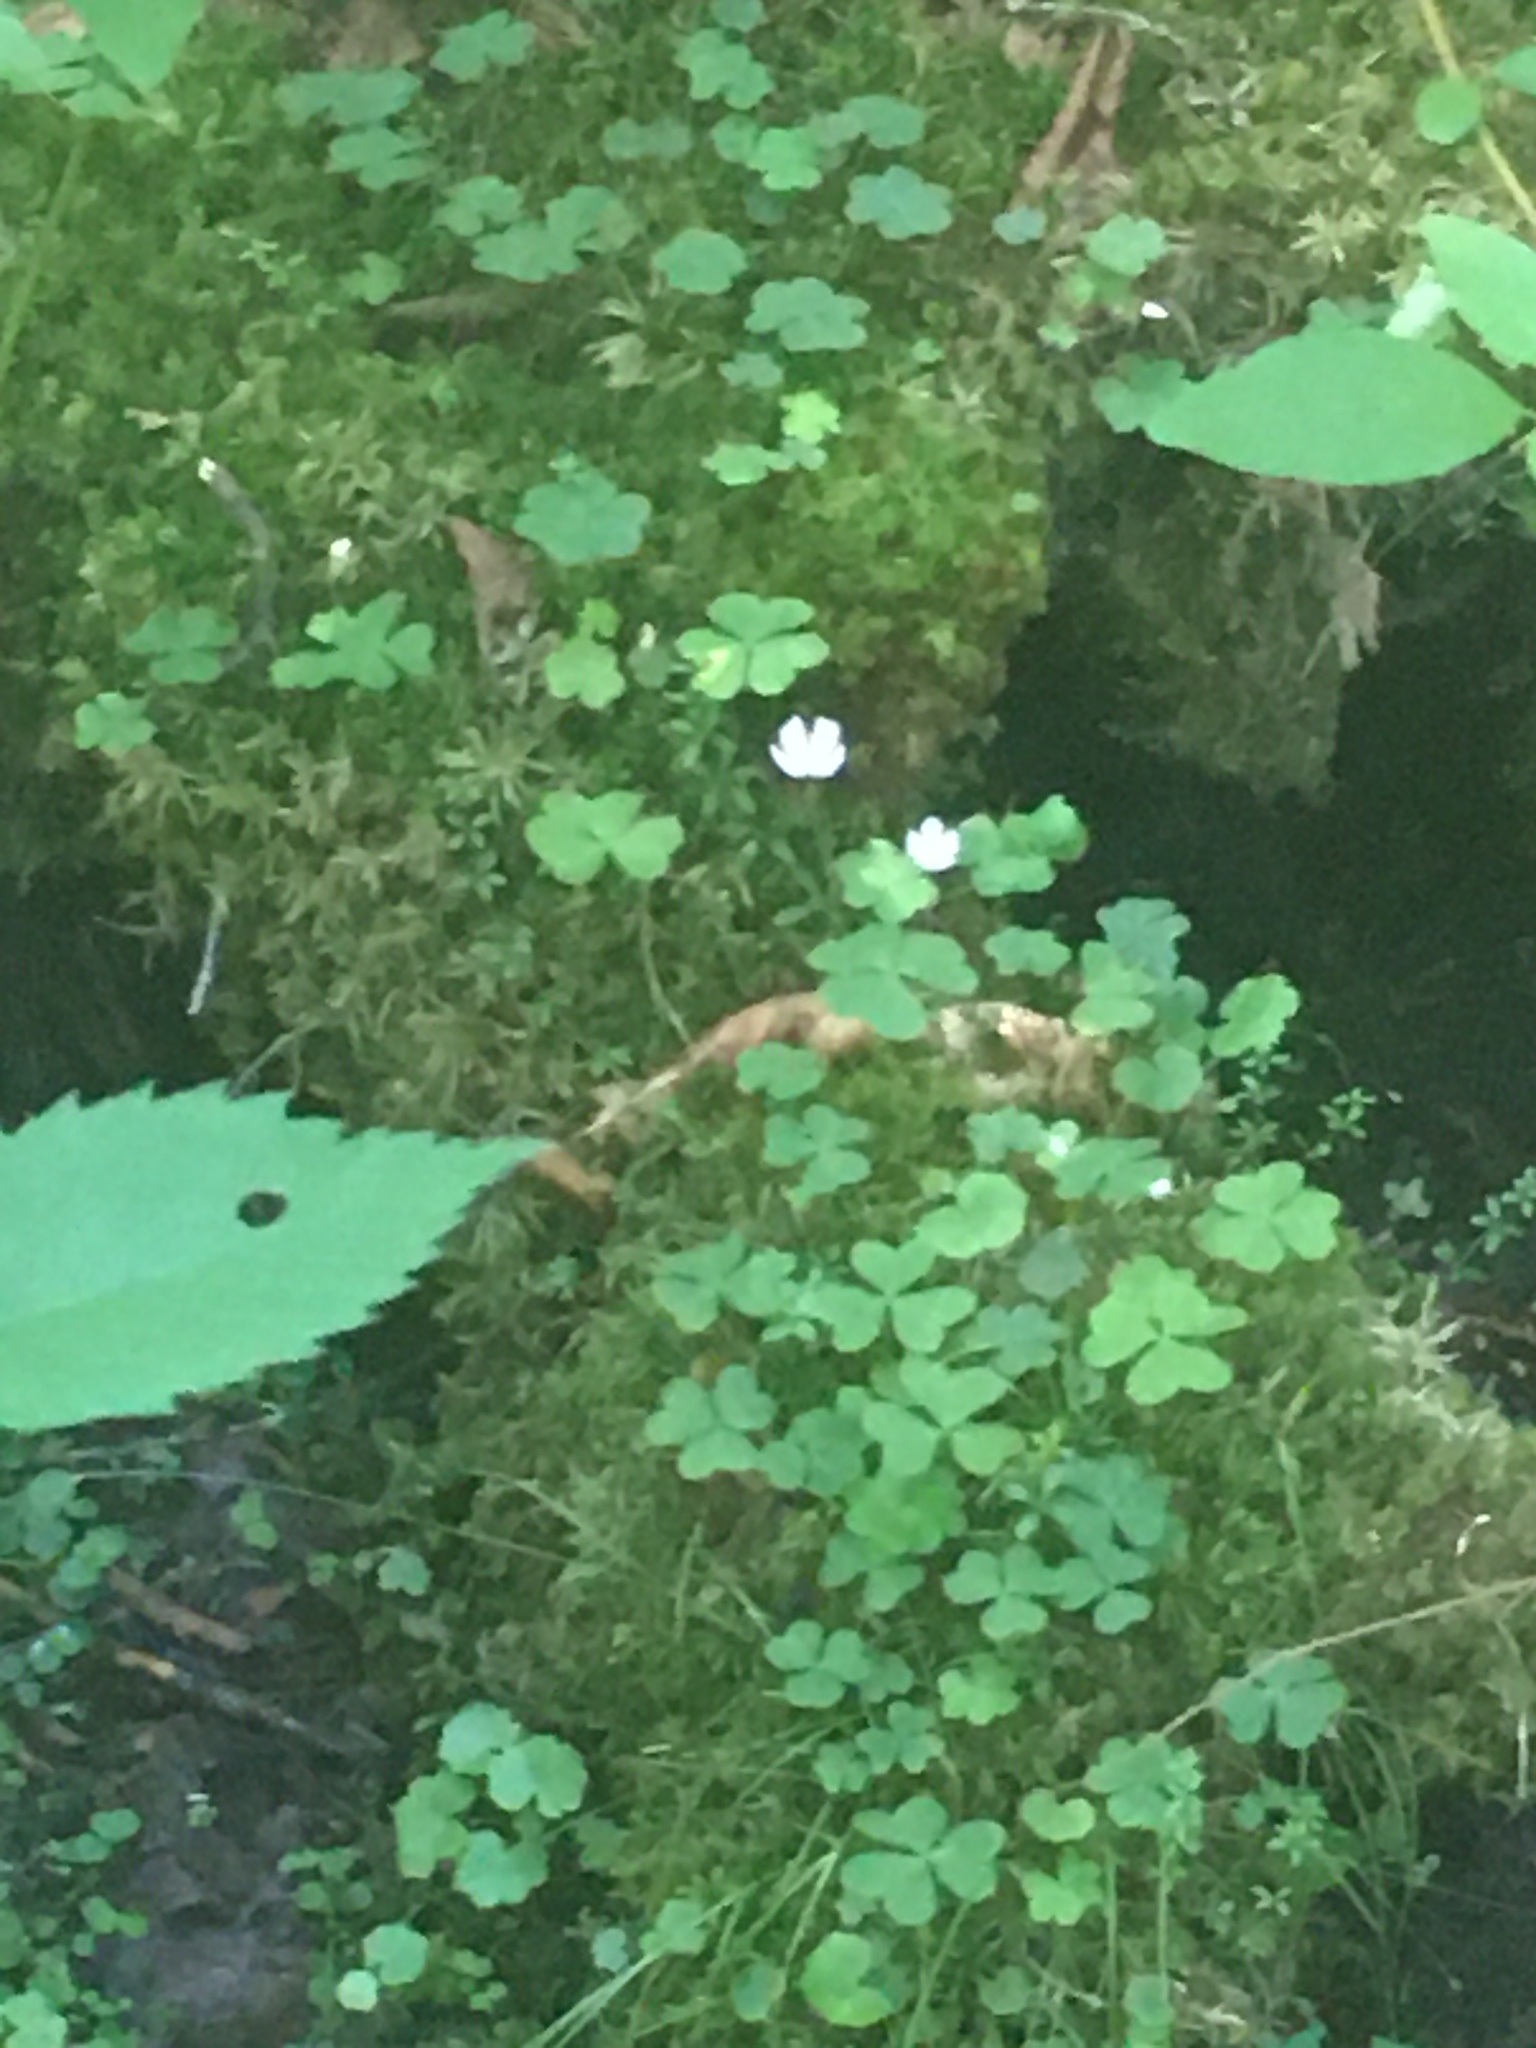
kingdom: Plantae
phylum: Tracheophyta
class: Magnoliopsida
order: Oxalidales
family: Oxalidaceae
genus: Oxalis
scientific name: Oxalis montana
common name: American wood-sorrel
